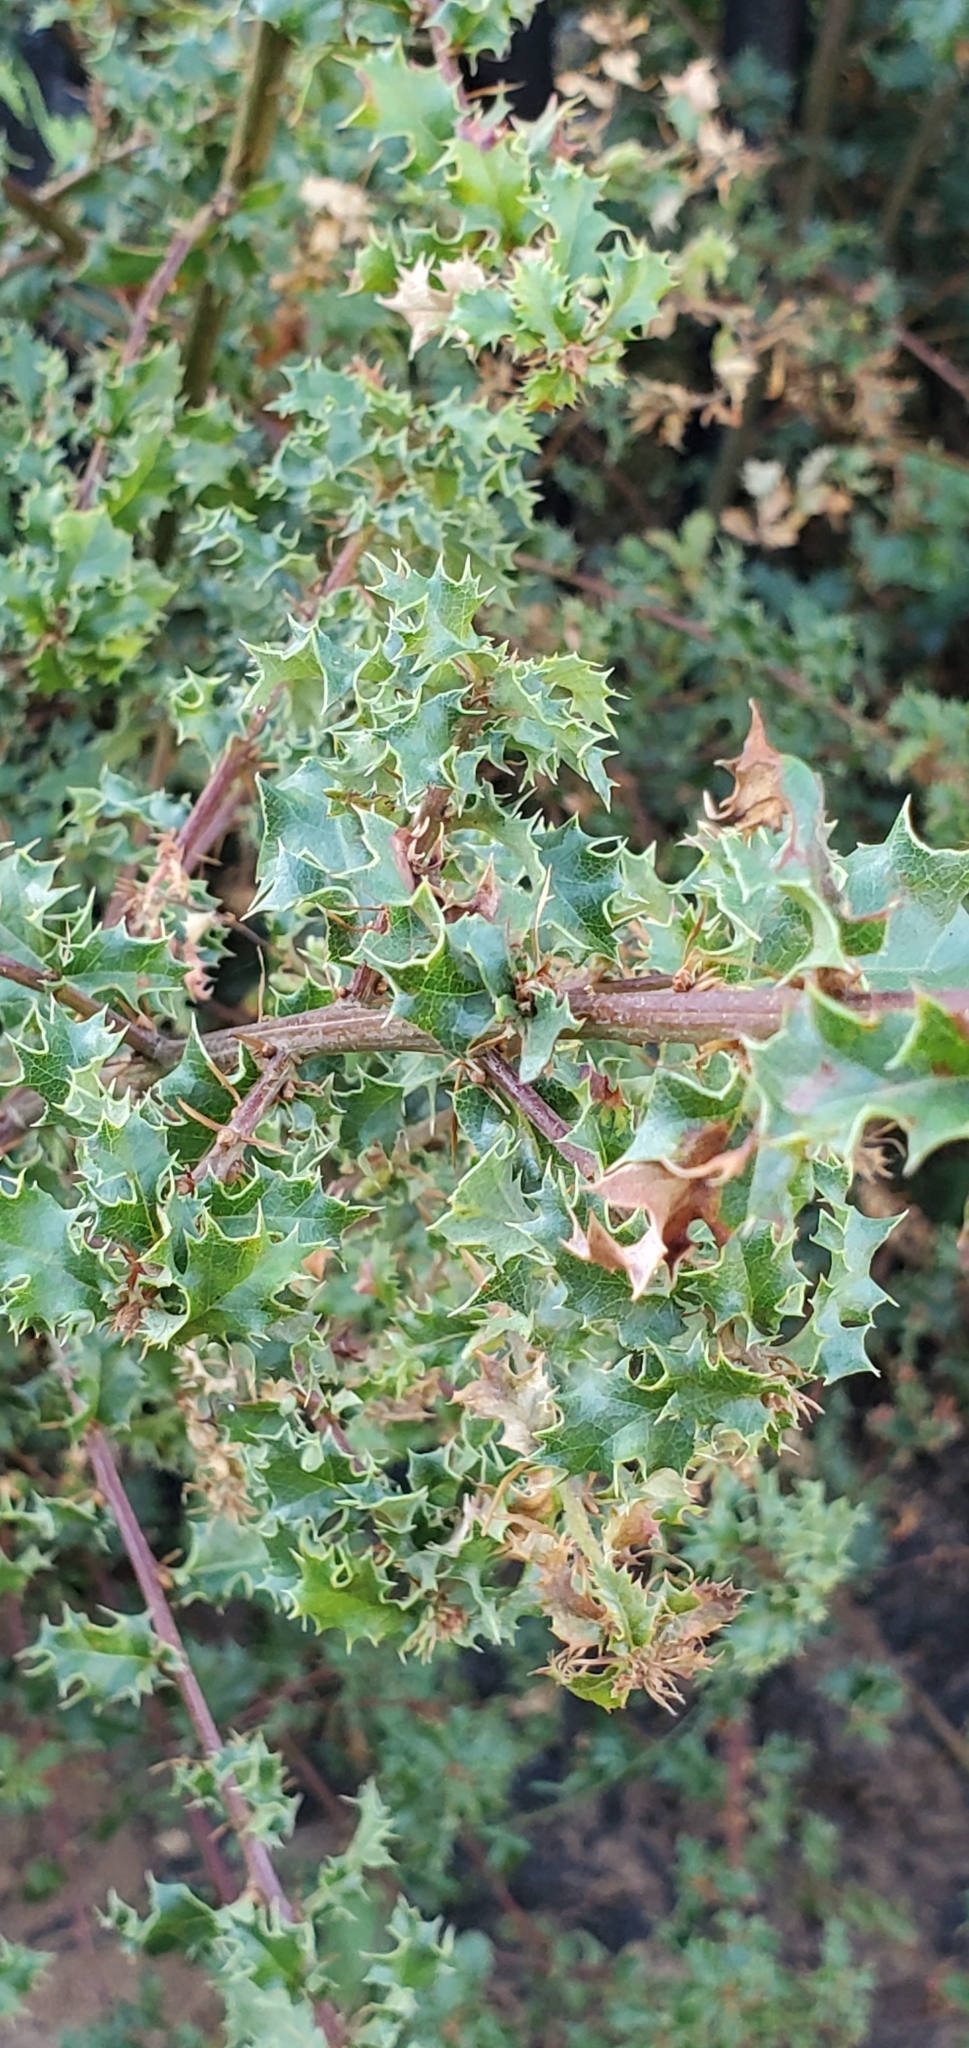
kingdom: Plantae
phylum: Tracheophyta
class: Magnoliopsida
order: Fagales
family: Fagaceae
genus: Quercus
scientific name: Quercus berberidifolia
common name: California scrub oak
